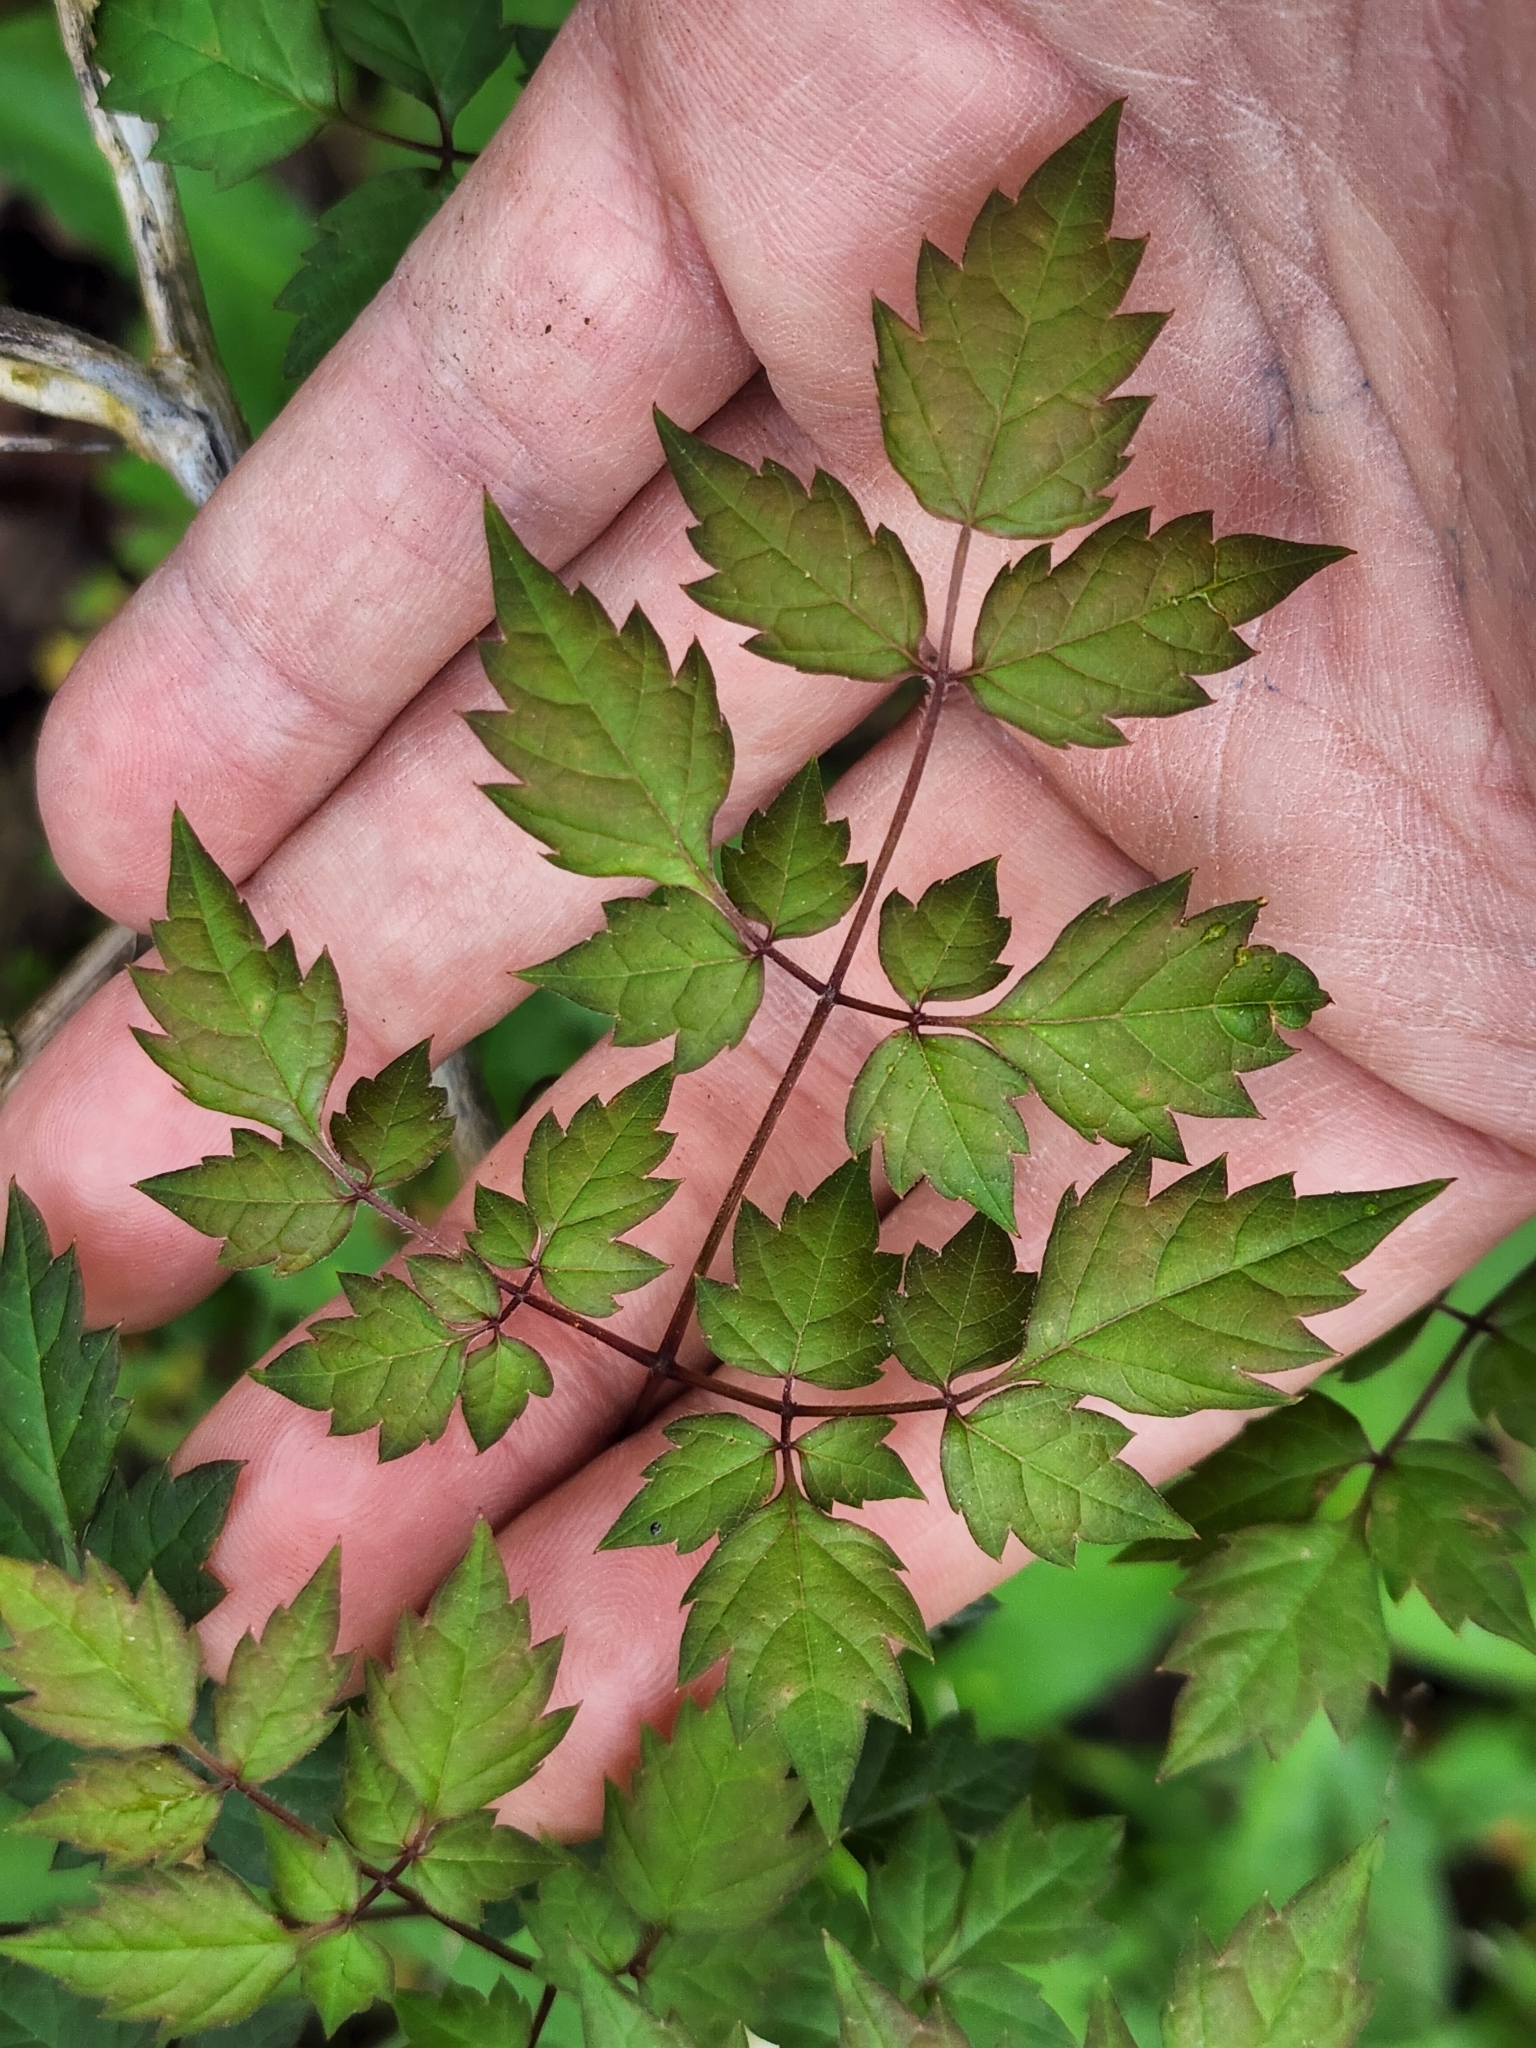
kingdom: Plantae
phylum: Tracheophyta
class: Magnoliopsida
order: Vitales
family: Vitaceae
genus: Nekemias
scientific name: Nekemias arborea
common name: Peppervine
